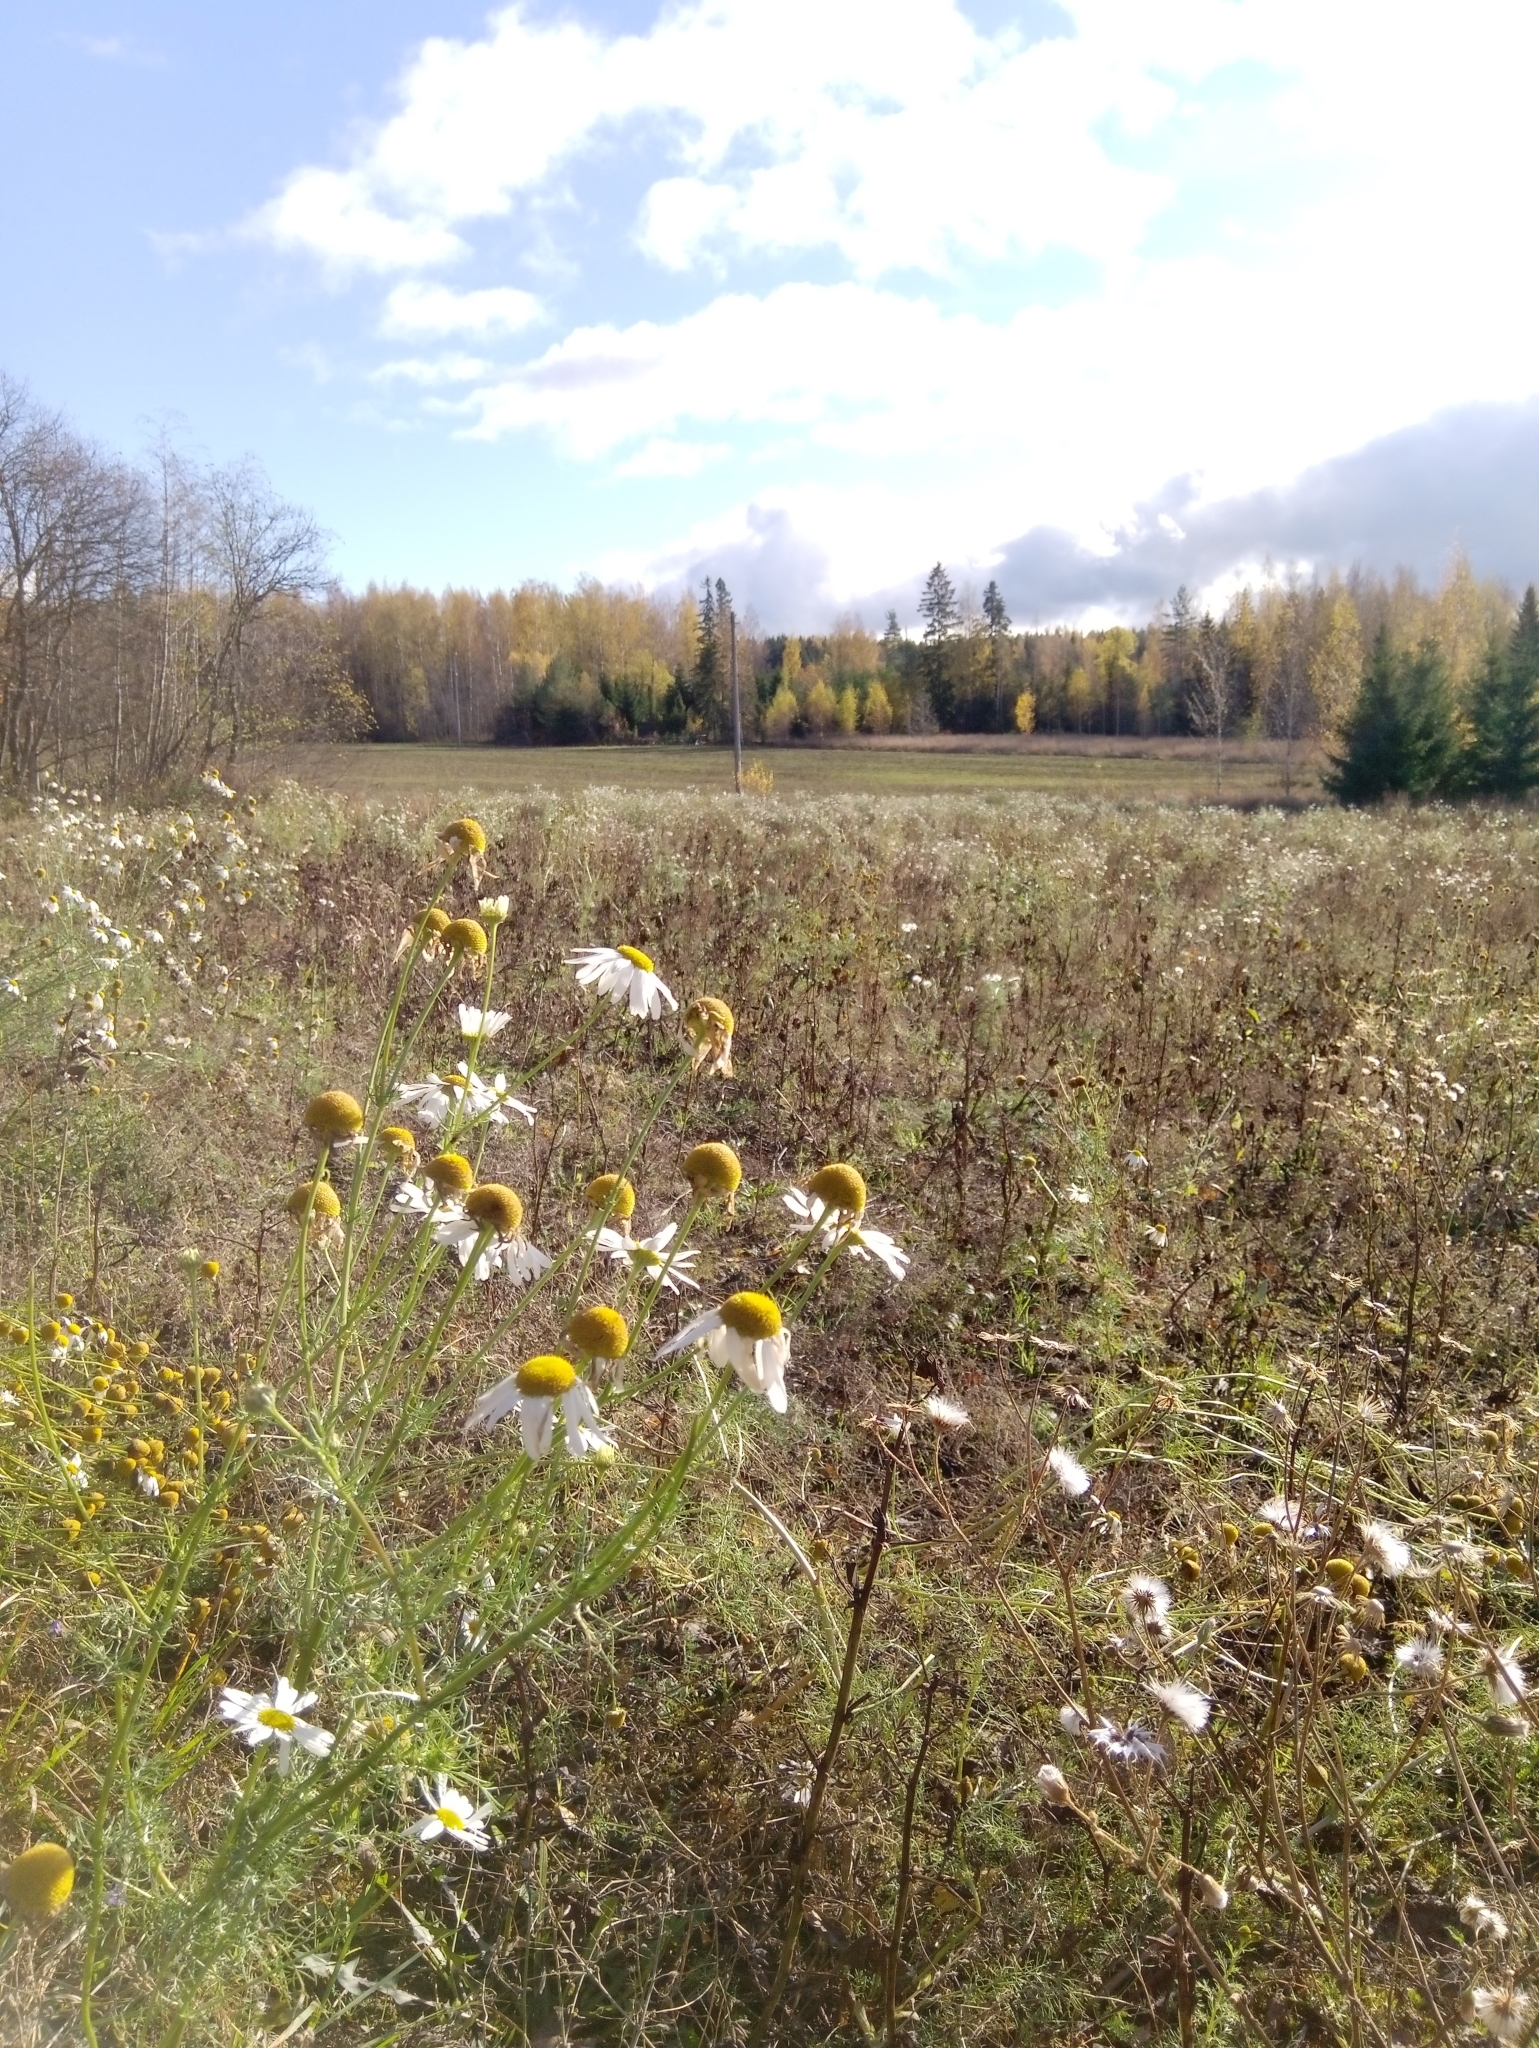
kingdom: Plantae
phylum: Tracheophyta
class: Magnoliopsida
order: Asterales
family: Asteraceae
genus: Tripleurospermum
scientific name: Tripleurospermum inodorum
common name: Scentless mayweed
